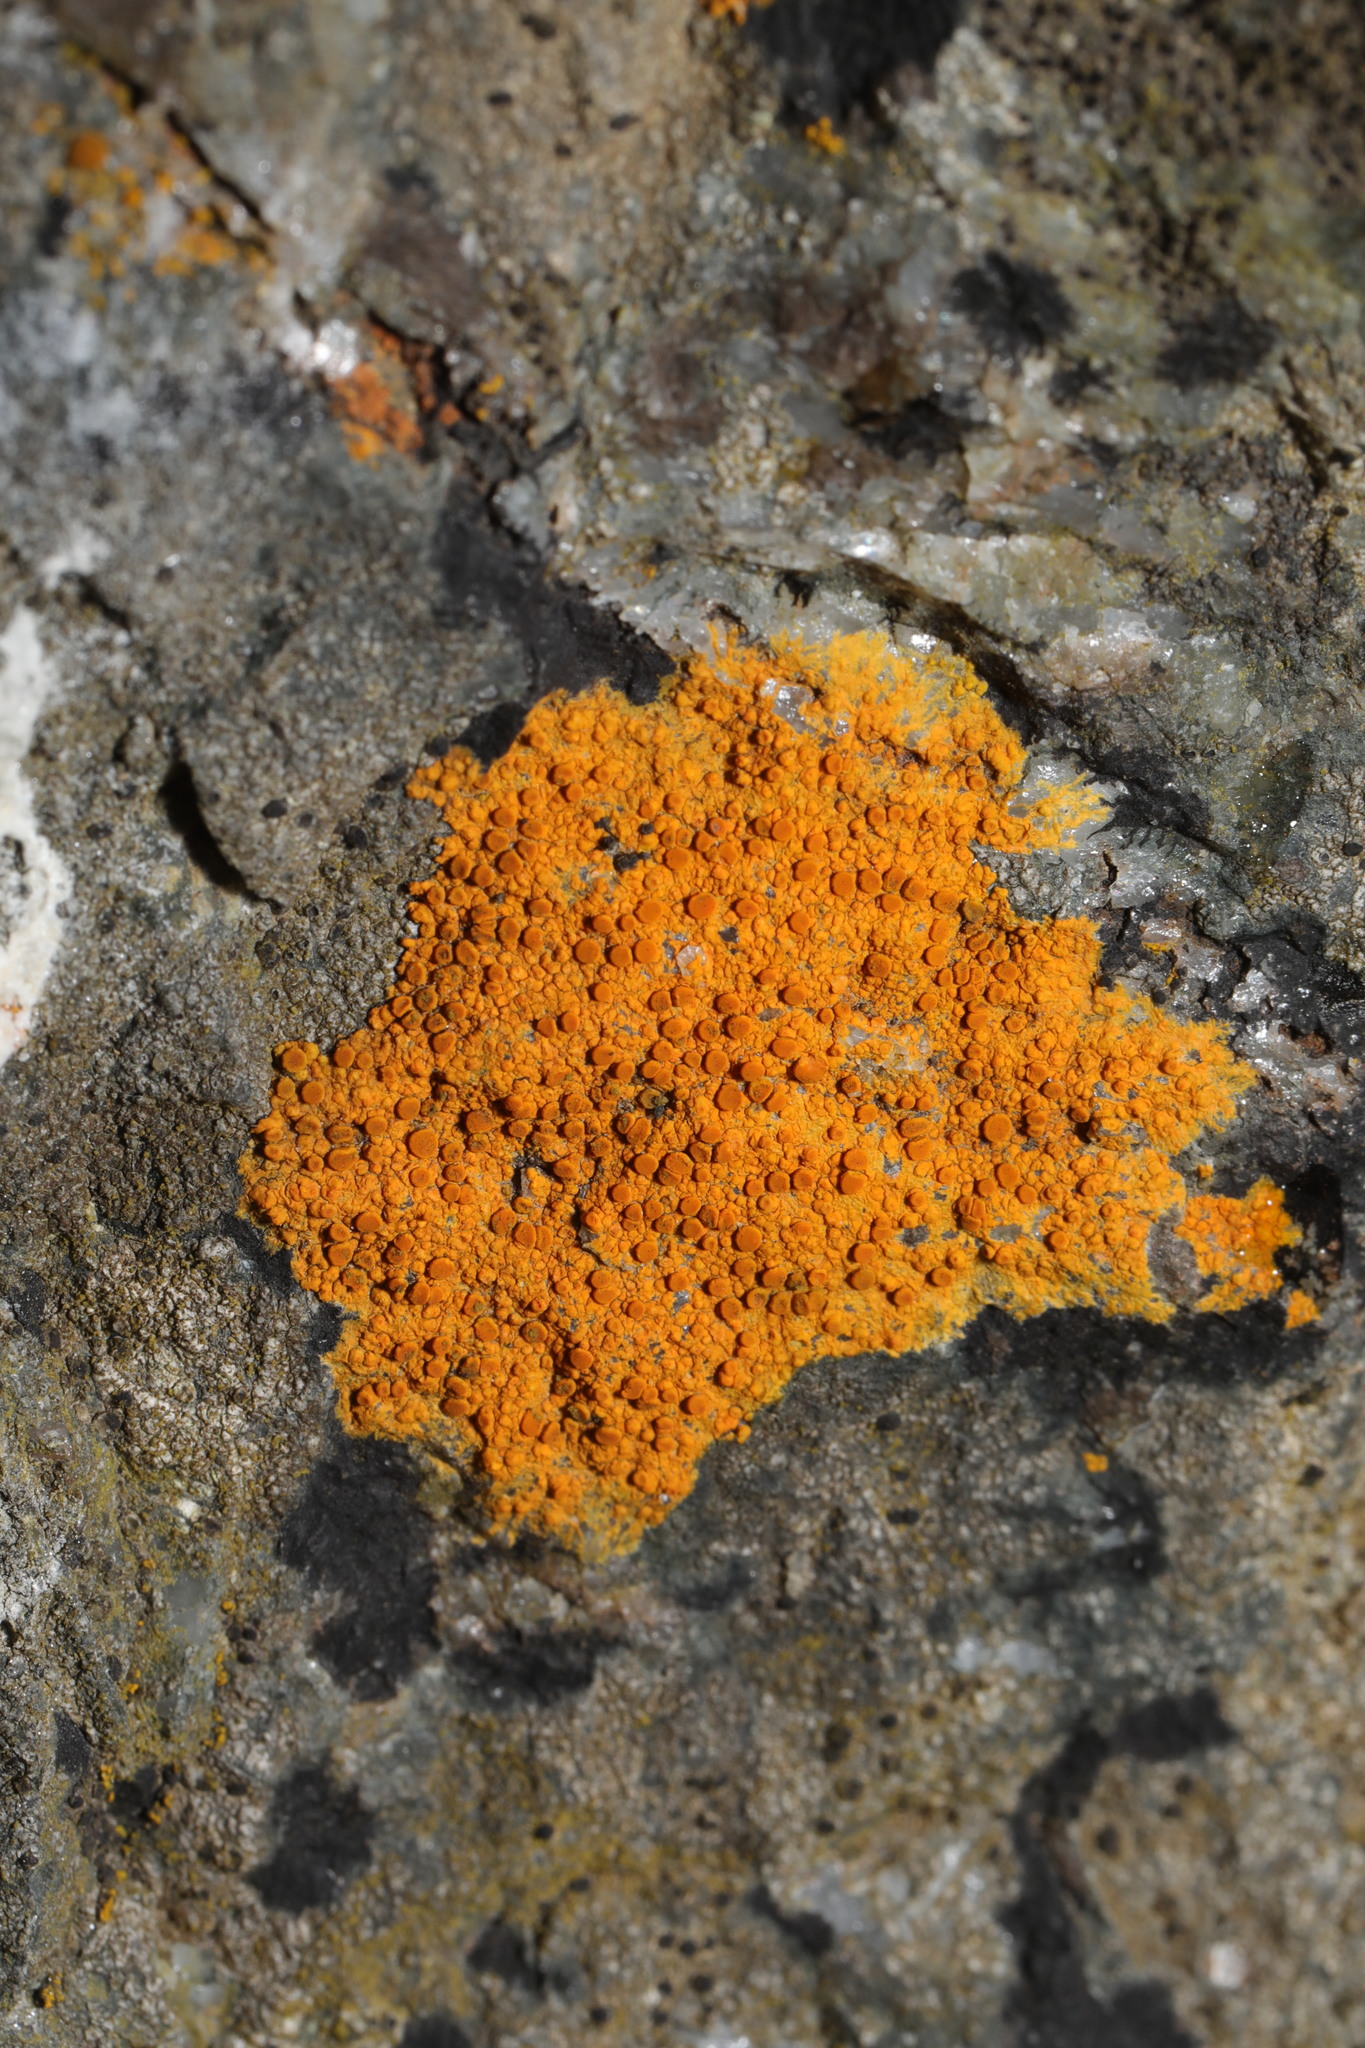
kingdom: Fungi
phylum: Ascomycota
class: Lecanoromycetes
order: Teloschistales
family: Teloschistaceae
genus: Flavoplaca
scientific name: Flavoplaca marina
